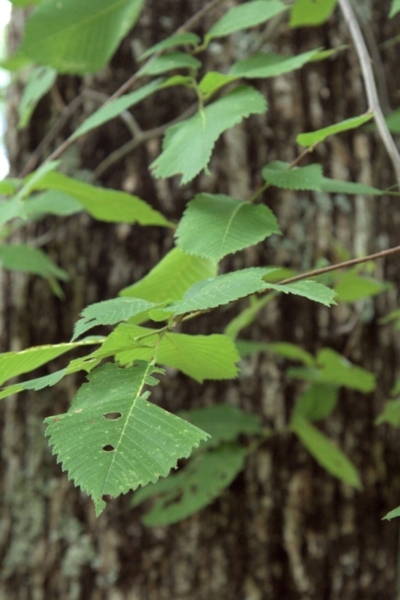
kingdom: Plantae
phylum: Tracheophyta
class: Magnoliopsida
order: Rosales
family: Ulmaceae
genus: Ulmus
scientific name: Ulmus americana
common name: American elm
